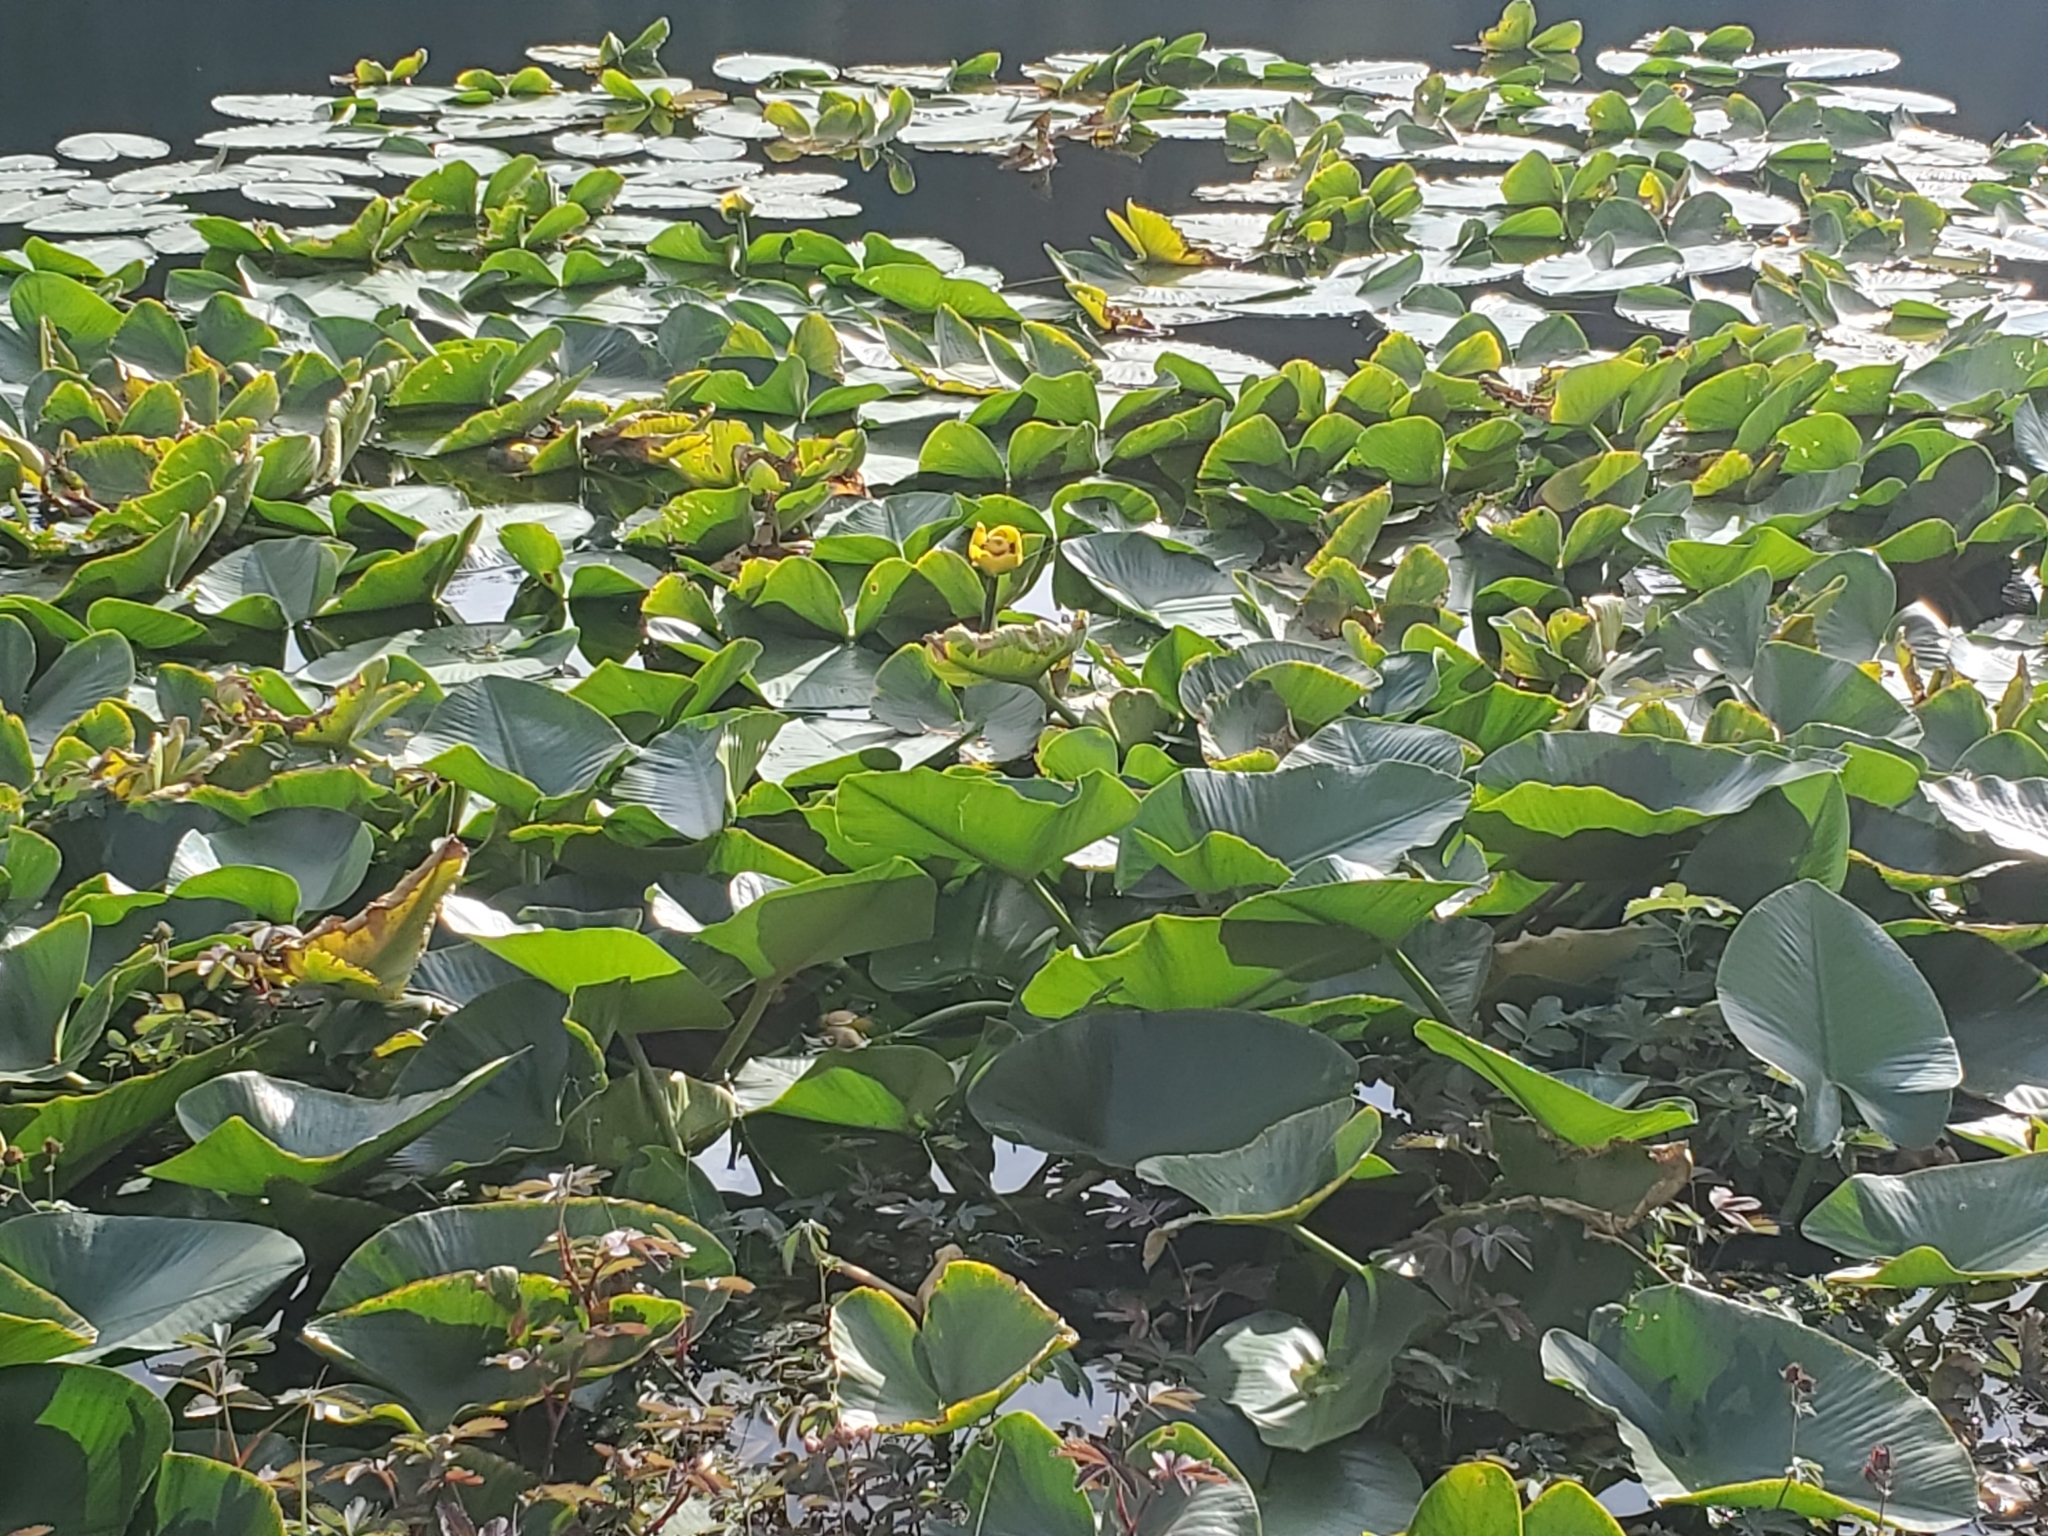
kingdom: Plantae
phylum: Tracheophyta
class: Magnoliopsida
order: Nymphaeales
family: Nymphaeaceae
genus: Nuphar
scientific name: Nuphar polysepala
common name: Rocky mountain cow-lily
